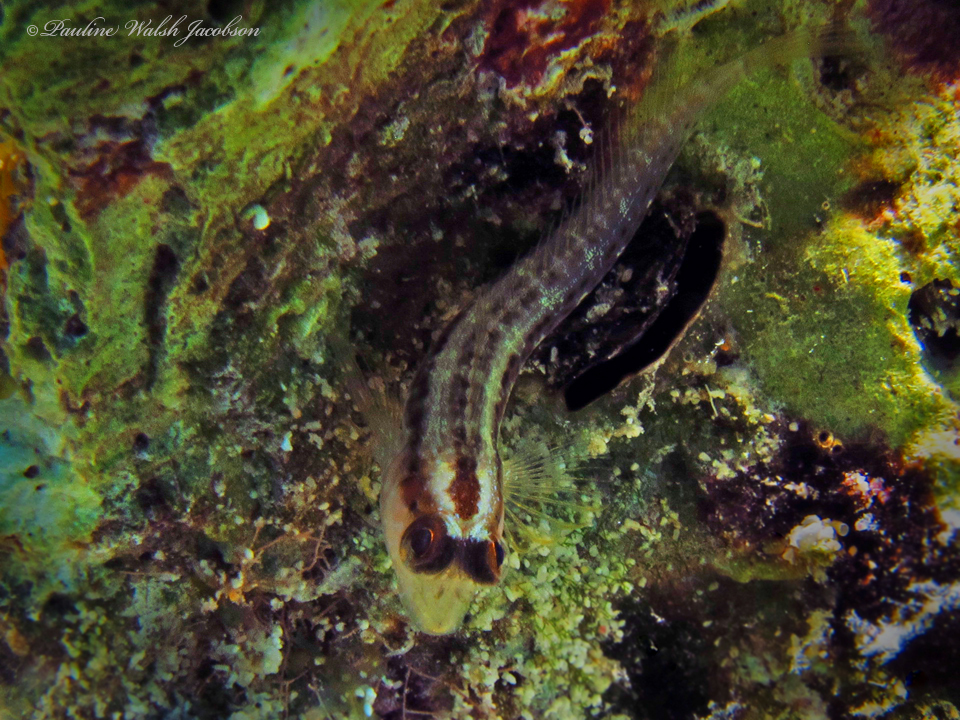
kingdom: Animalia
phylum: Chordata
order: Perciformes
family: Blenniidae
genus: Parablennius
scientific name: Parablennius marmoreus
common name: Seaweed blenny
